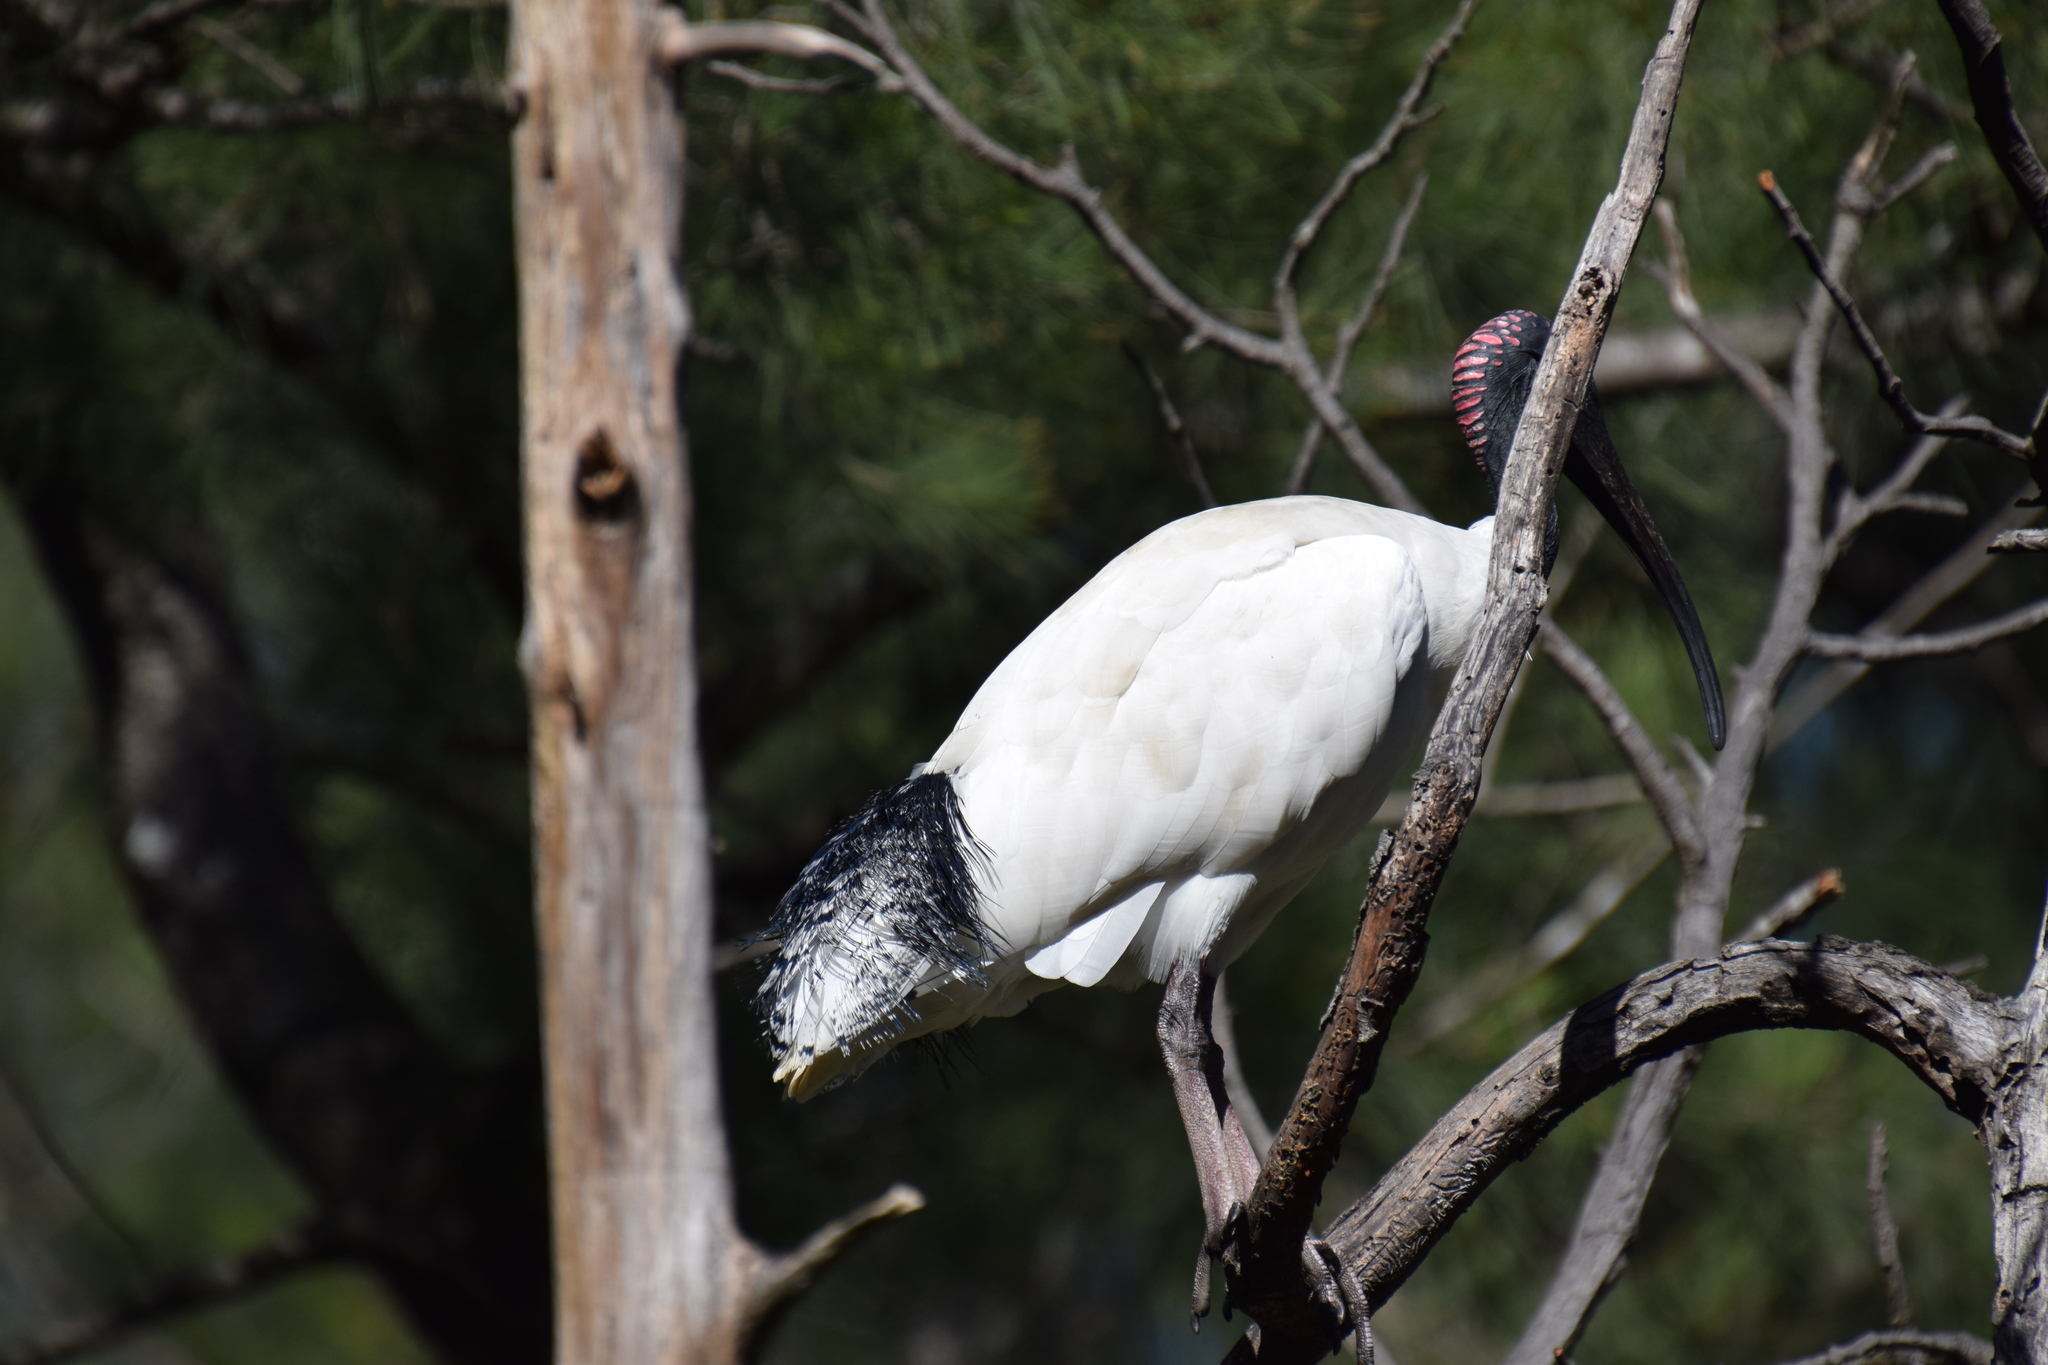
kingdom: Animalia
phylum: Chordata
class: Aves
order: Pelecaniformes
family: Threskiornithidae
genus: Threskiornis
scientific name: Threskiornis molucca
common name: Australian white ibis
